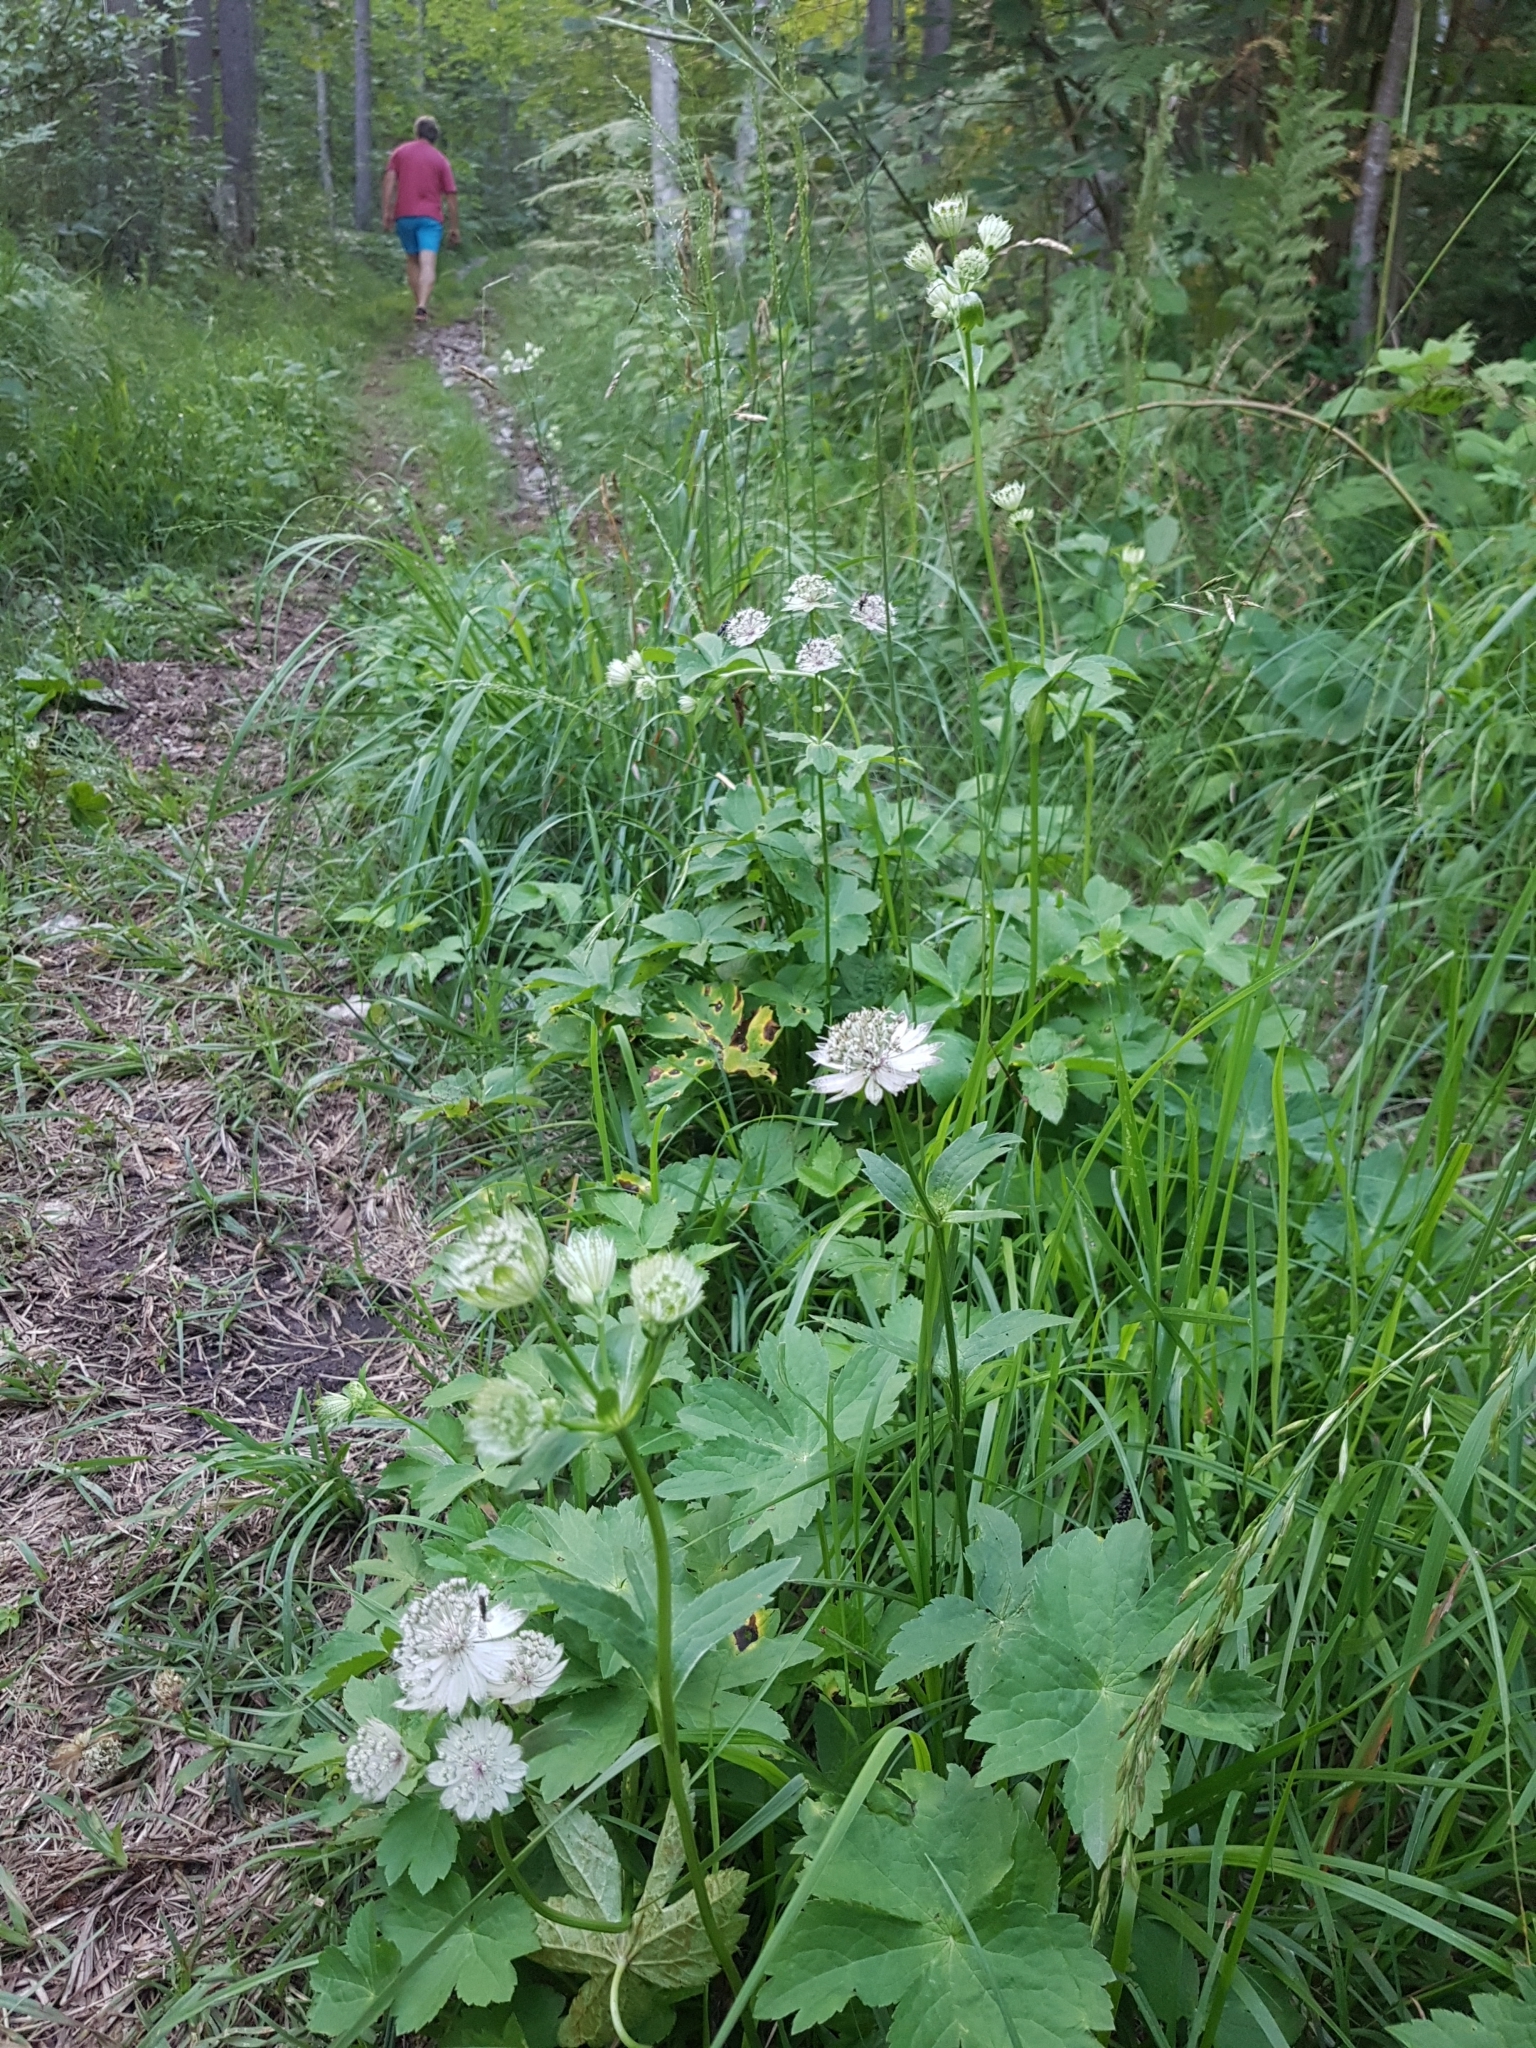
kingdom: Plantae
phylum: Tracheophyta
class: Magnoliopsida
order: Apiales
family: Apiaceae
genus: Astrantia
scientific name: Astrantia major
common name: Greater masterwort
